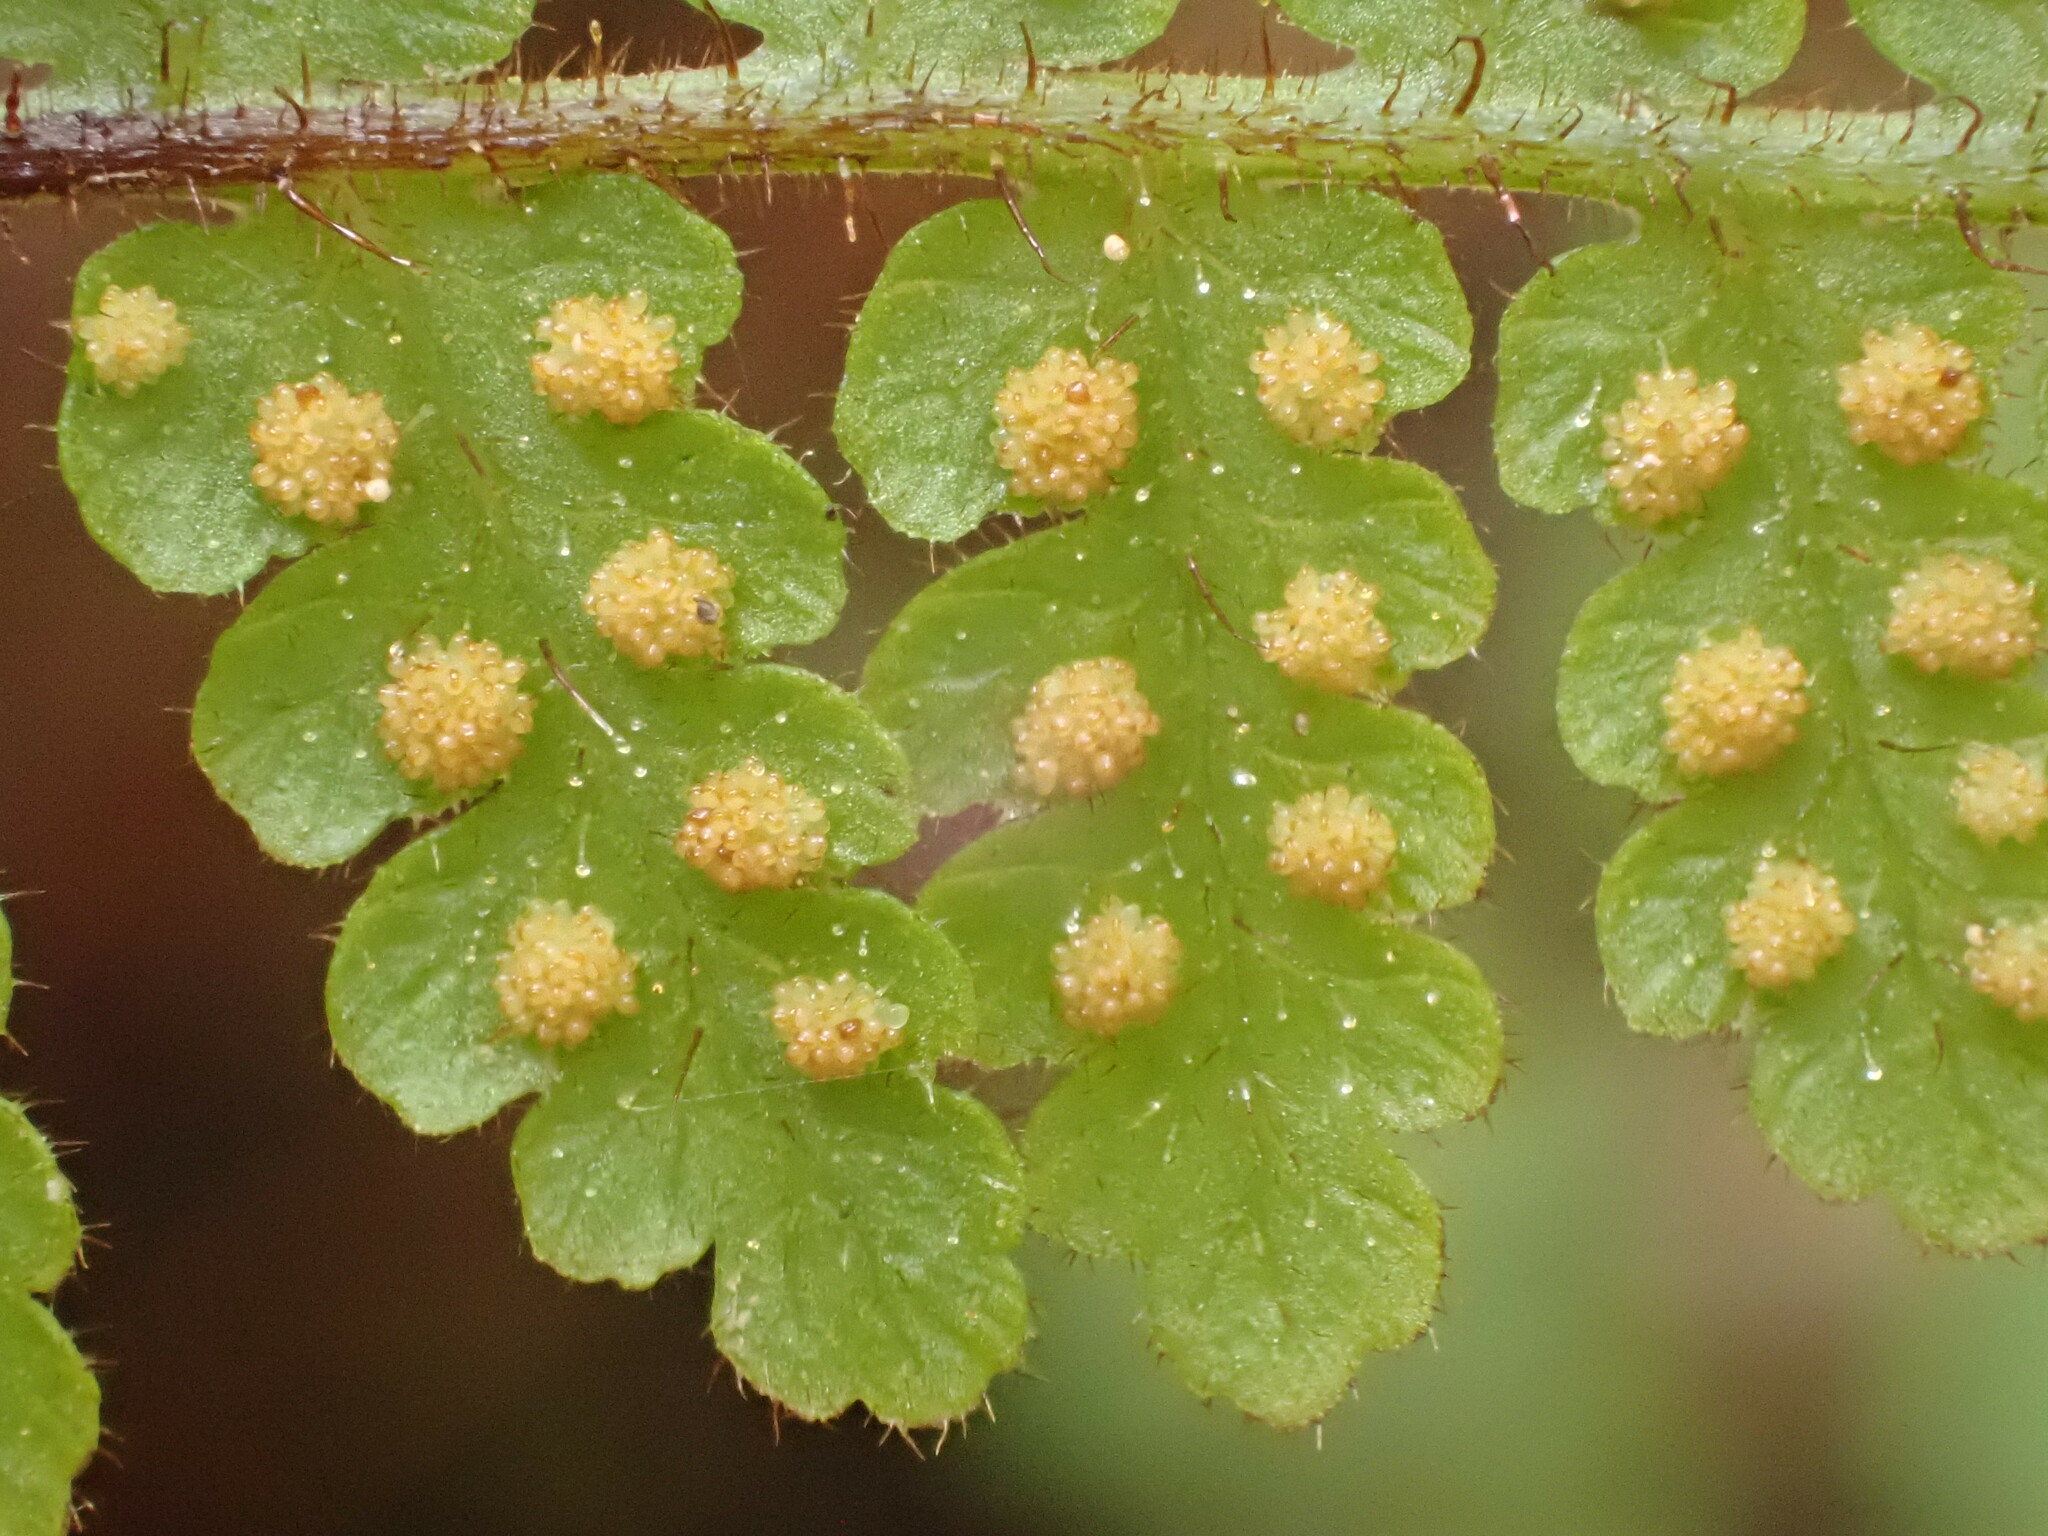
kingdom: Plantae
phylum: Tracheophyta
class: Polypodiopsida
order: Polypodiales
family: Dennstaedtiaceae
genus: Hypolepis
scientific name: Hypolepis rugosula
